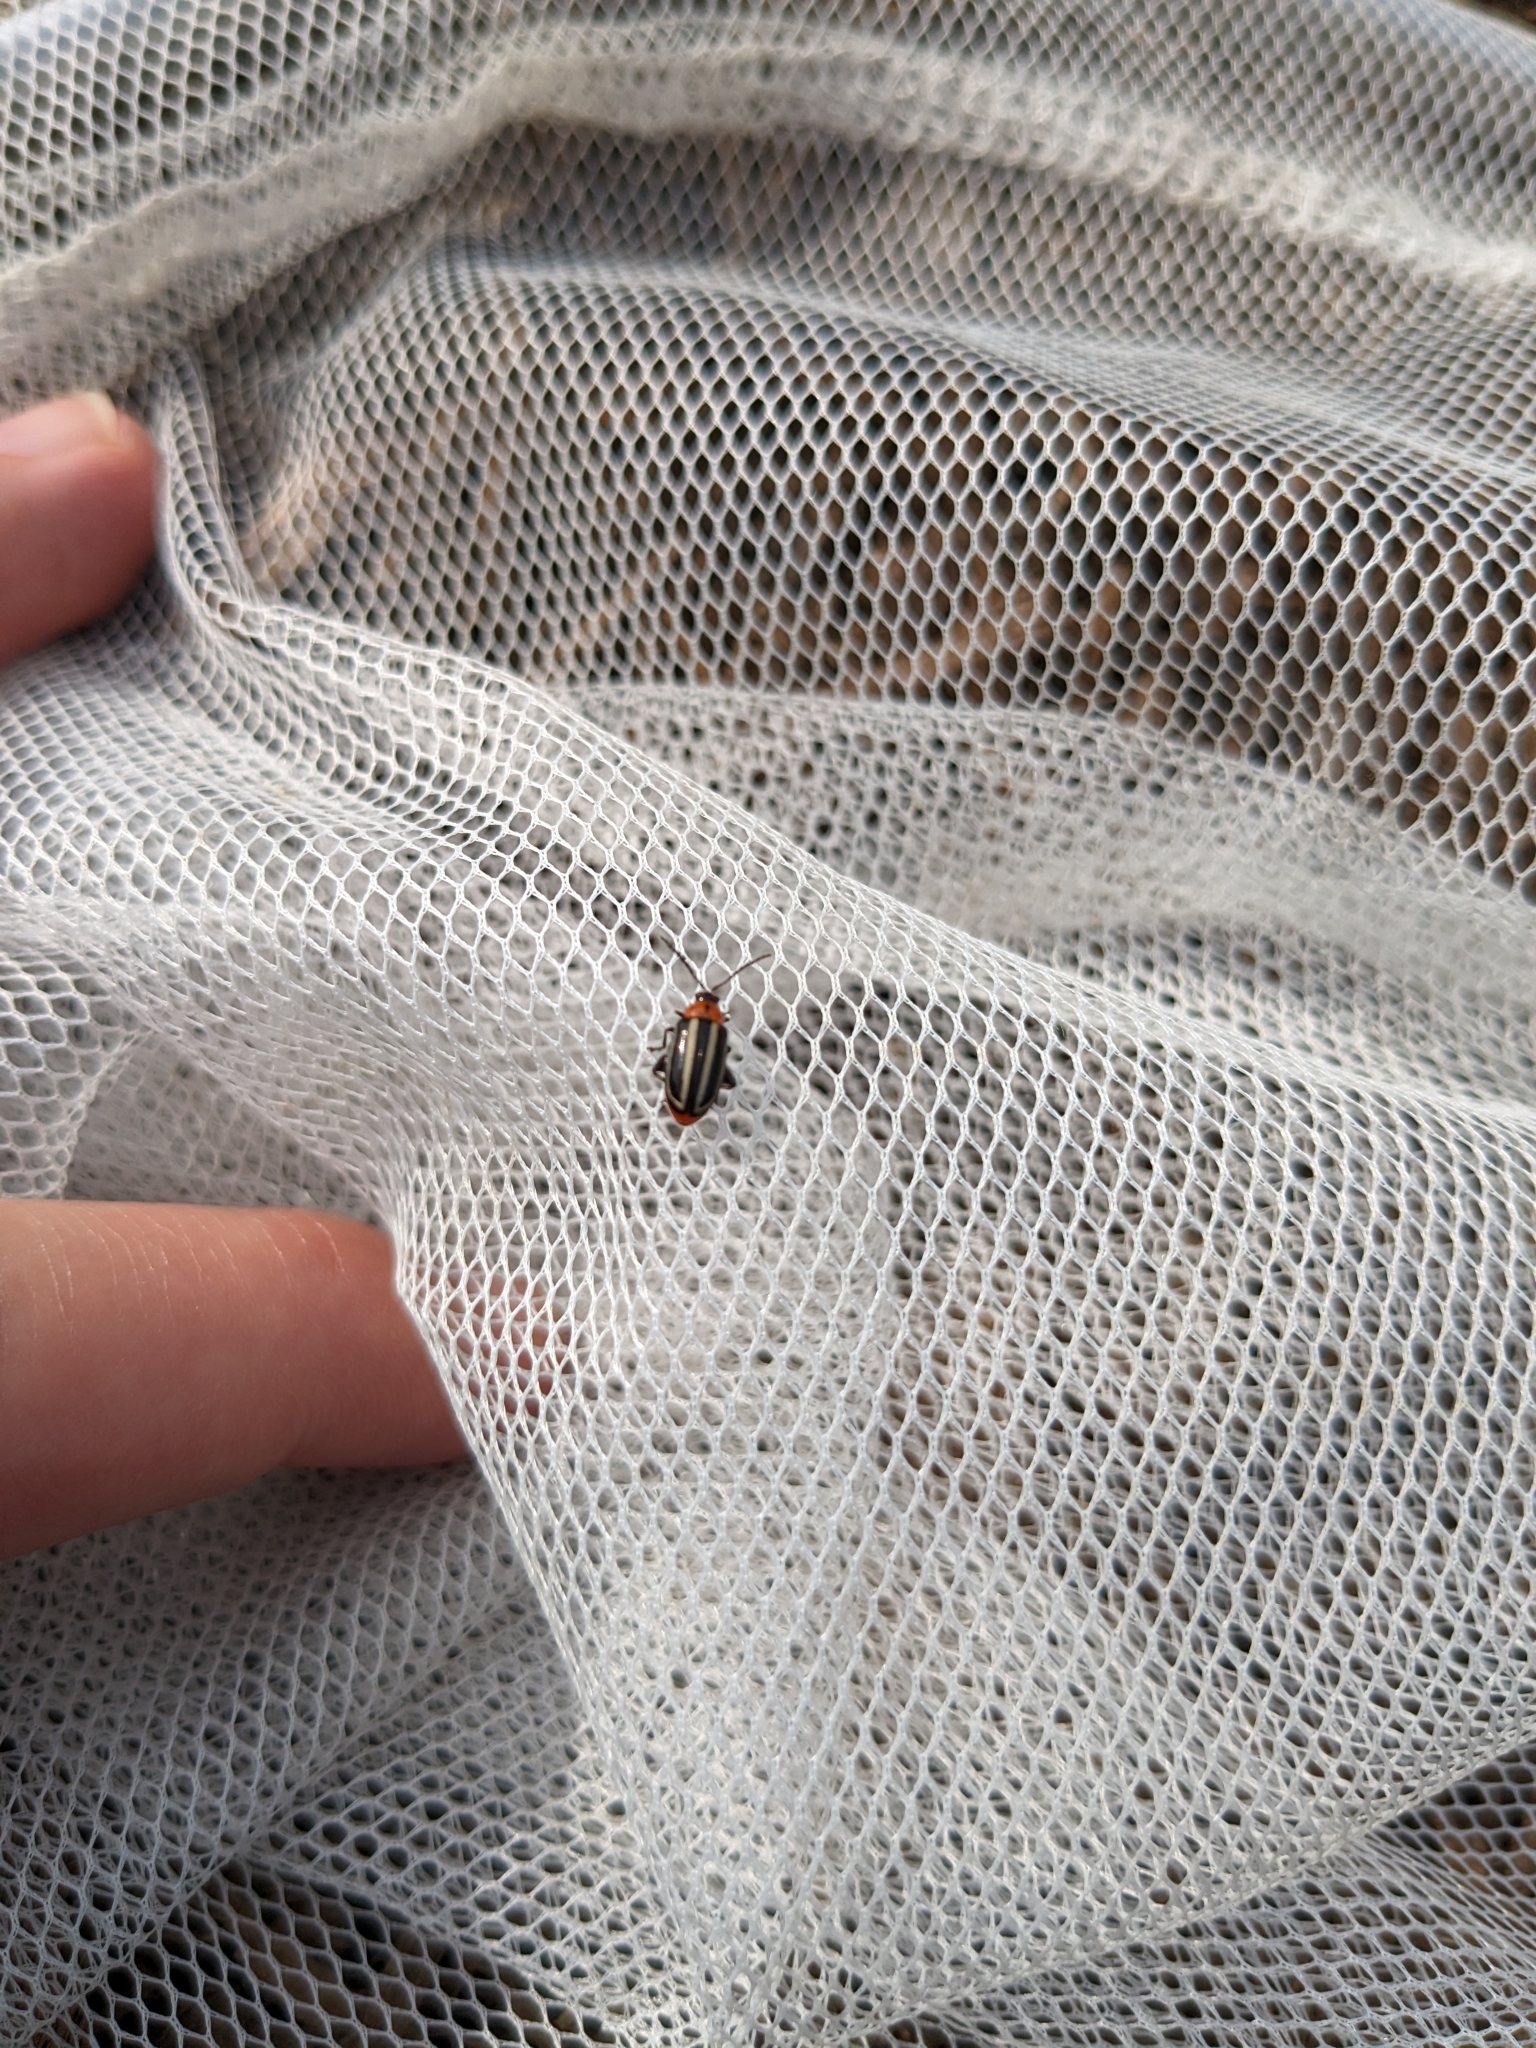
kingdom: Animalia
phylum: Arthropoda
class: Insecta
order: Coleoptera
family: Chrysomelidae
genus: Disonycha
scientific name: Disonycha glabrata
